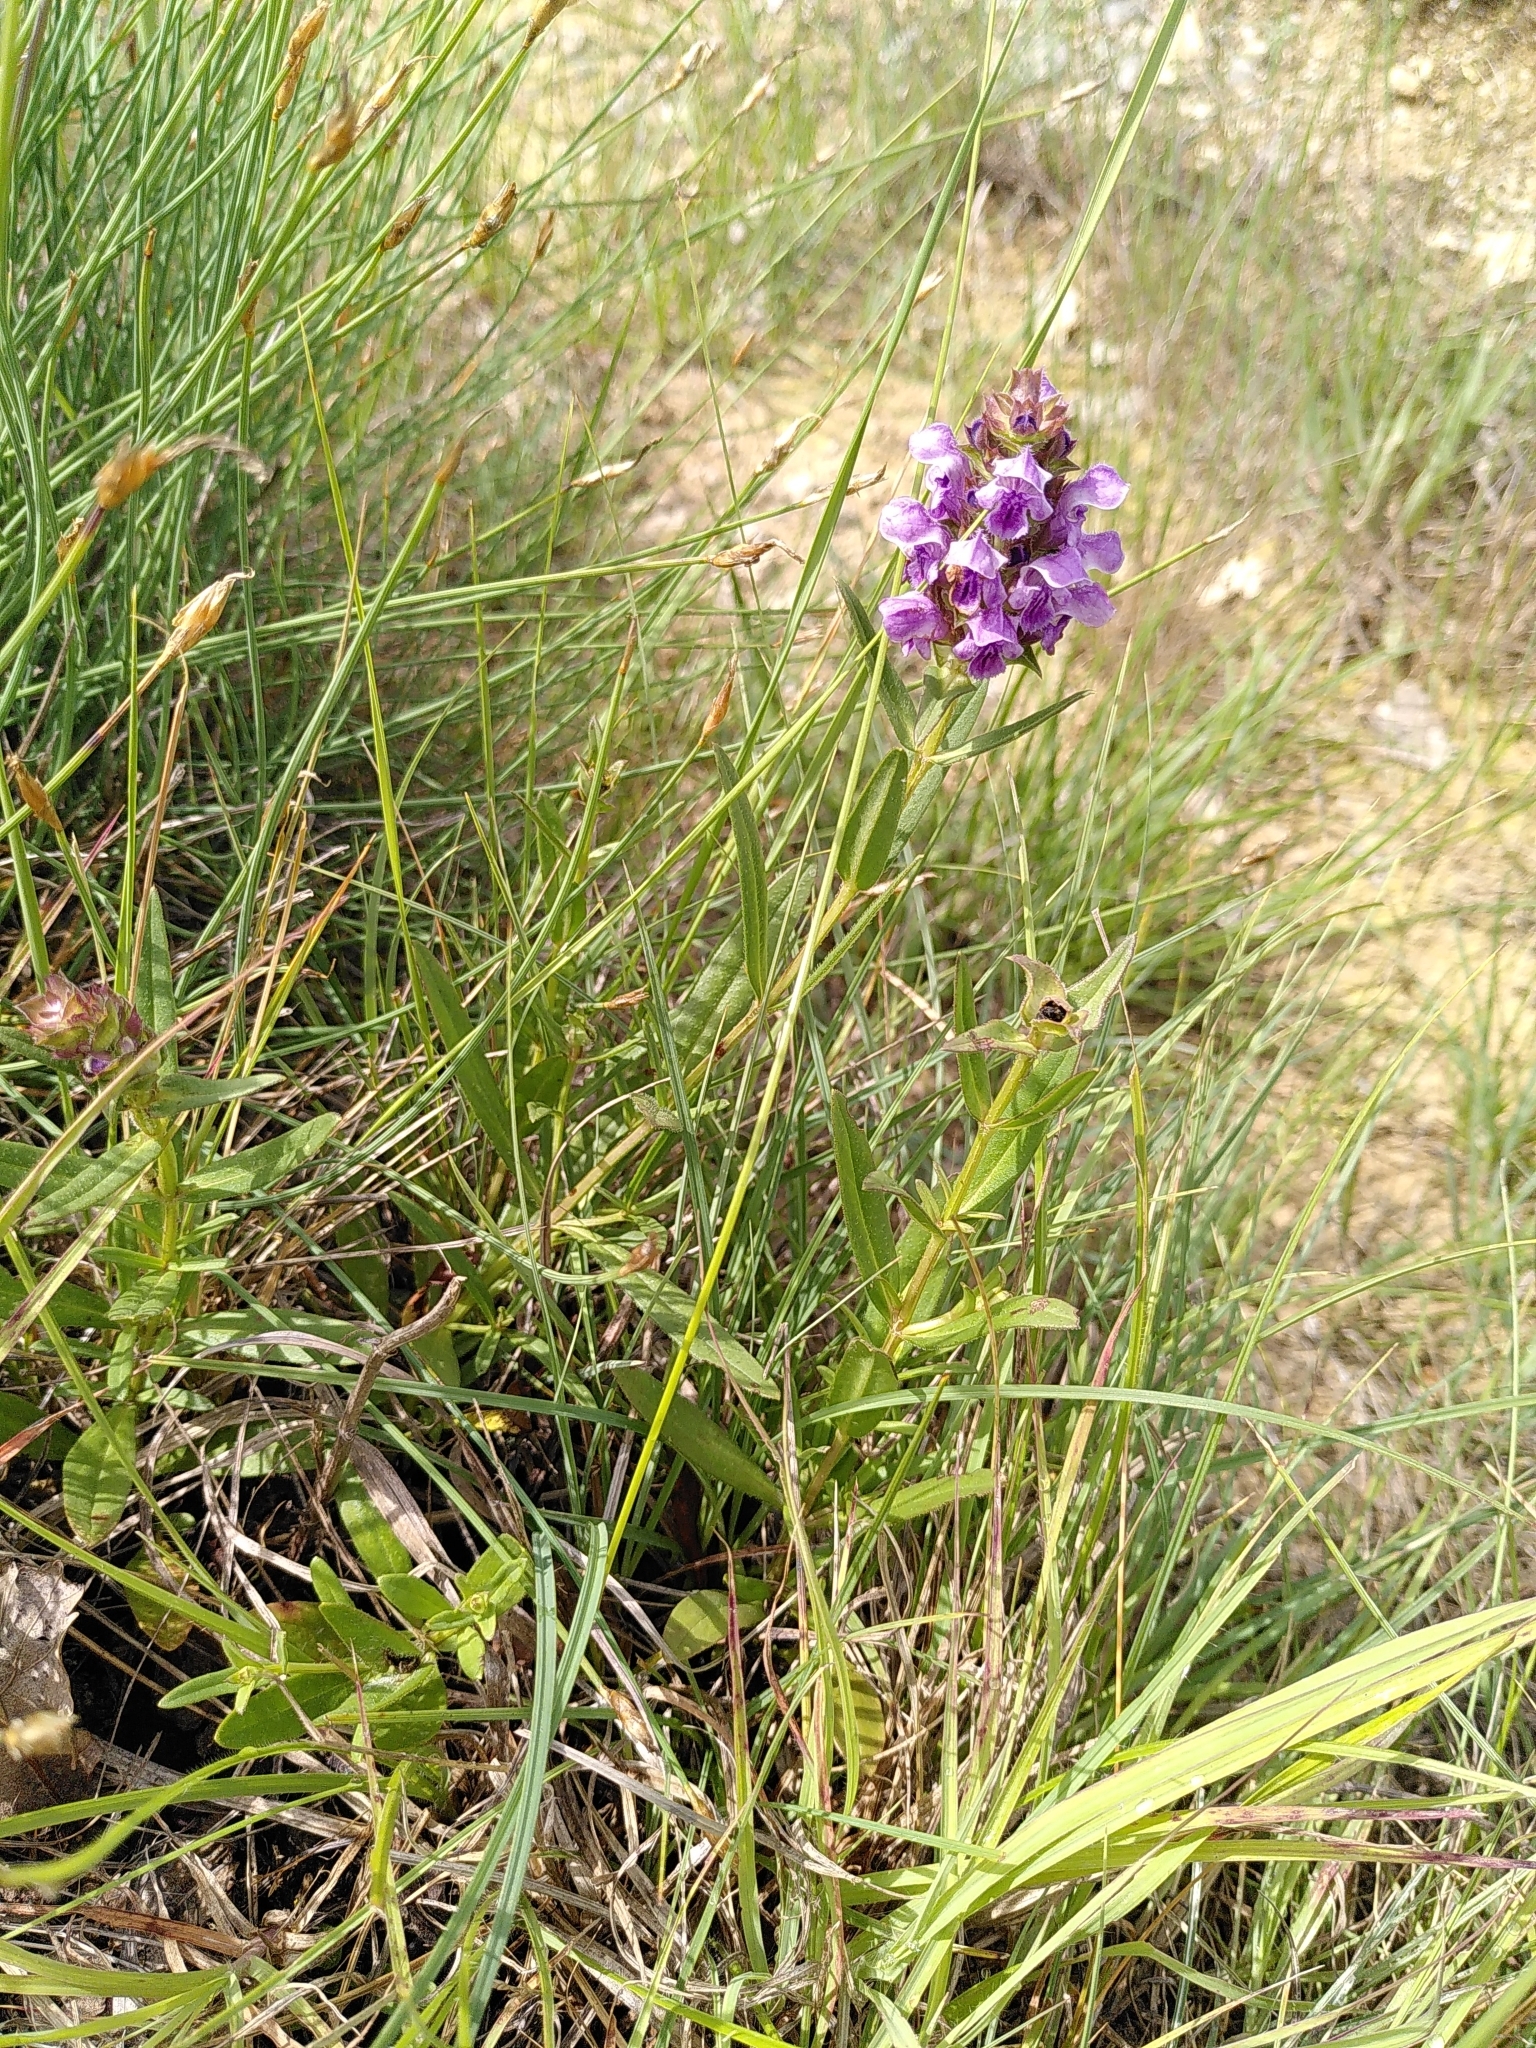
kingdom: Plantae
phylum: Tracheophyta
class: Magnoliopsida
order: Lamiales
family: Lamiaceae
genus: Prunella
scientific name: Prunella hyssopifolia
